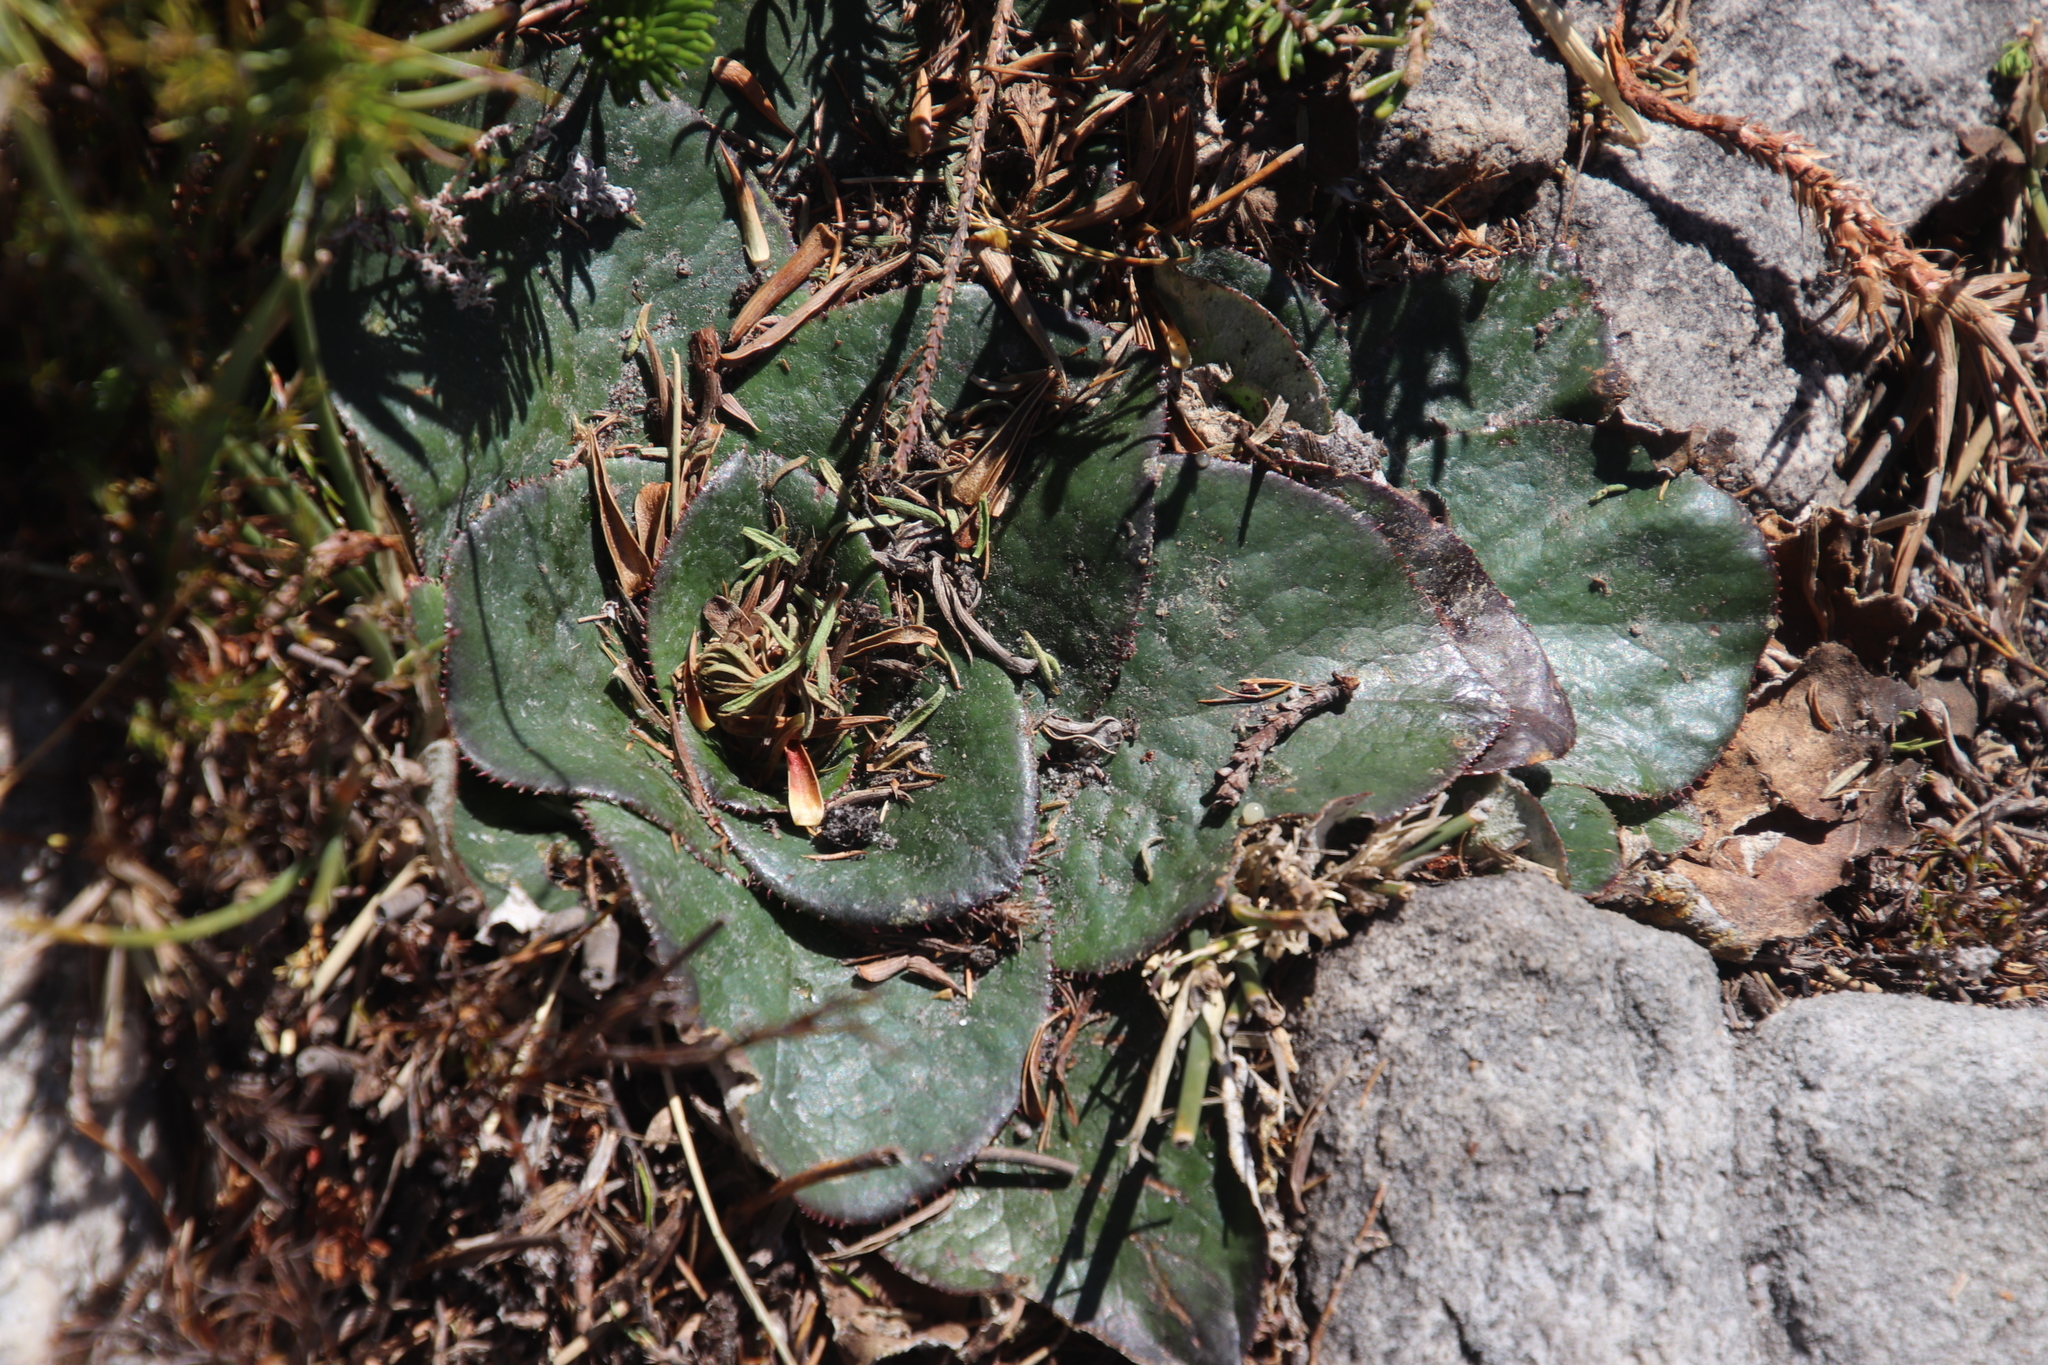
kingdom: Plantae
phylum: Tracheophyta
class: Magnoliopsida
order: Apiales
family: Apiaceae
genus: Hermas
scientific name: Hermas ciliata
